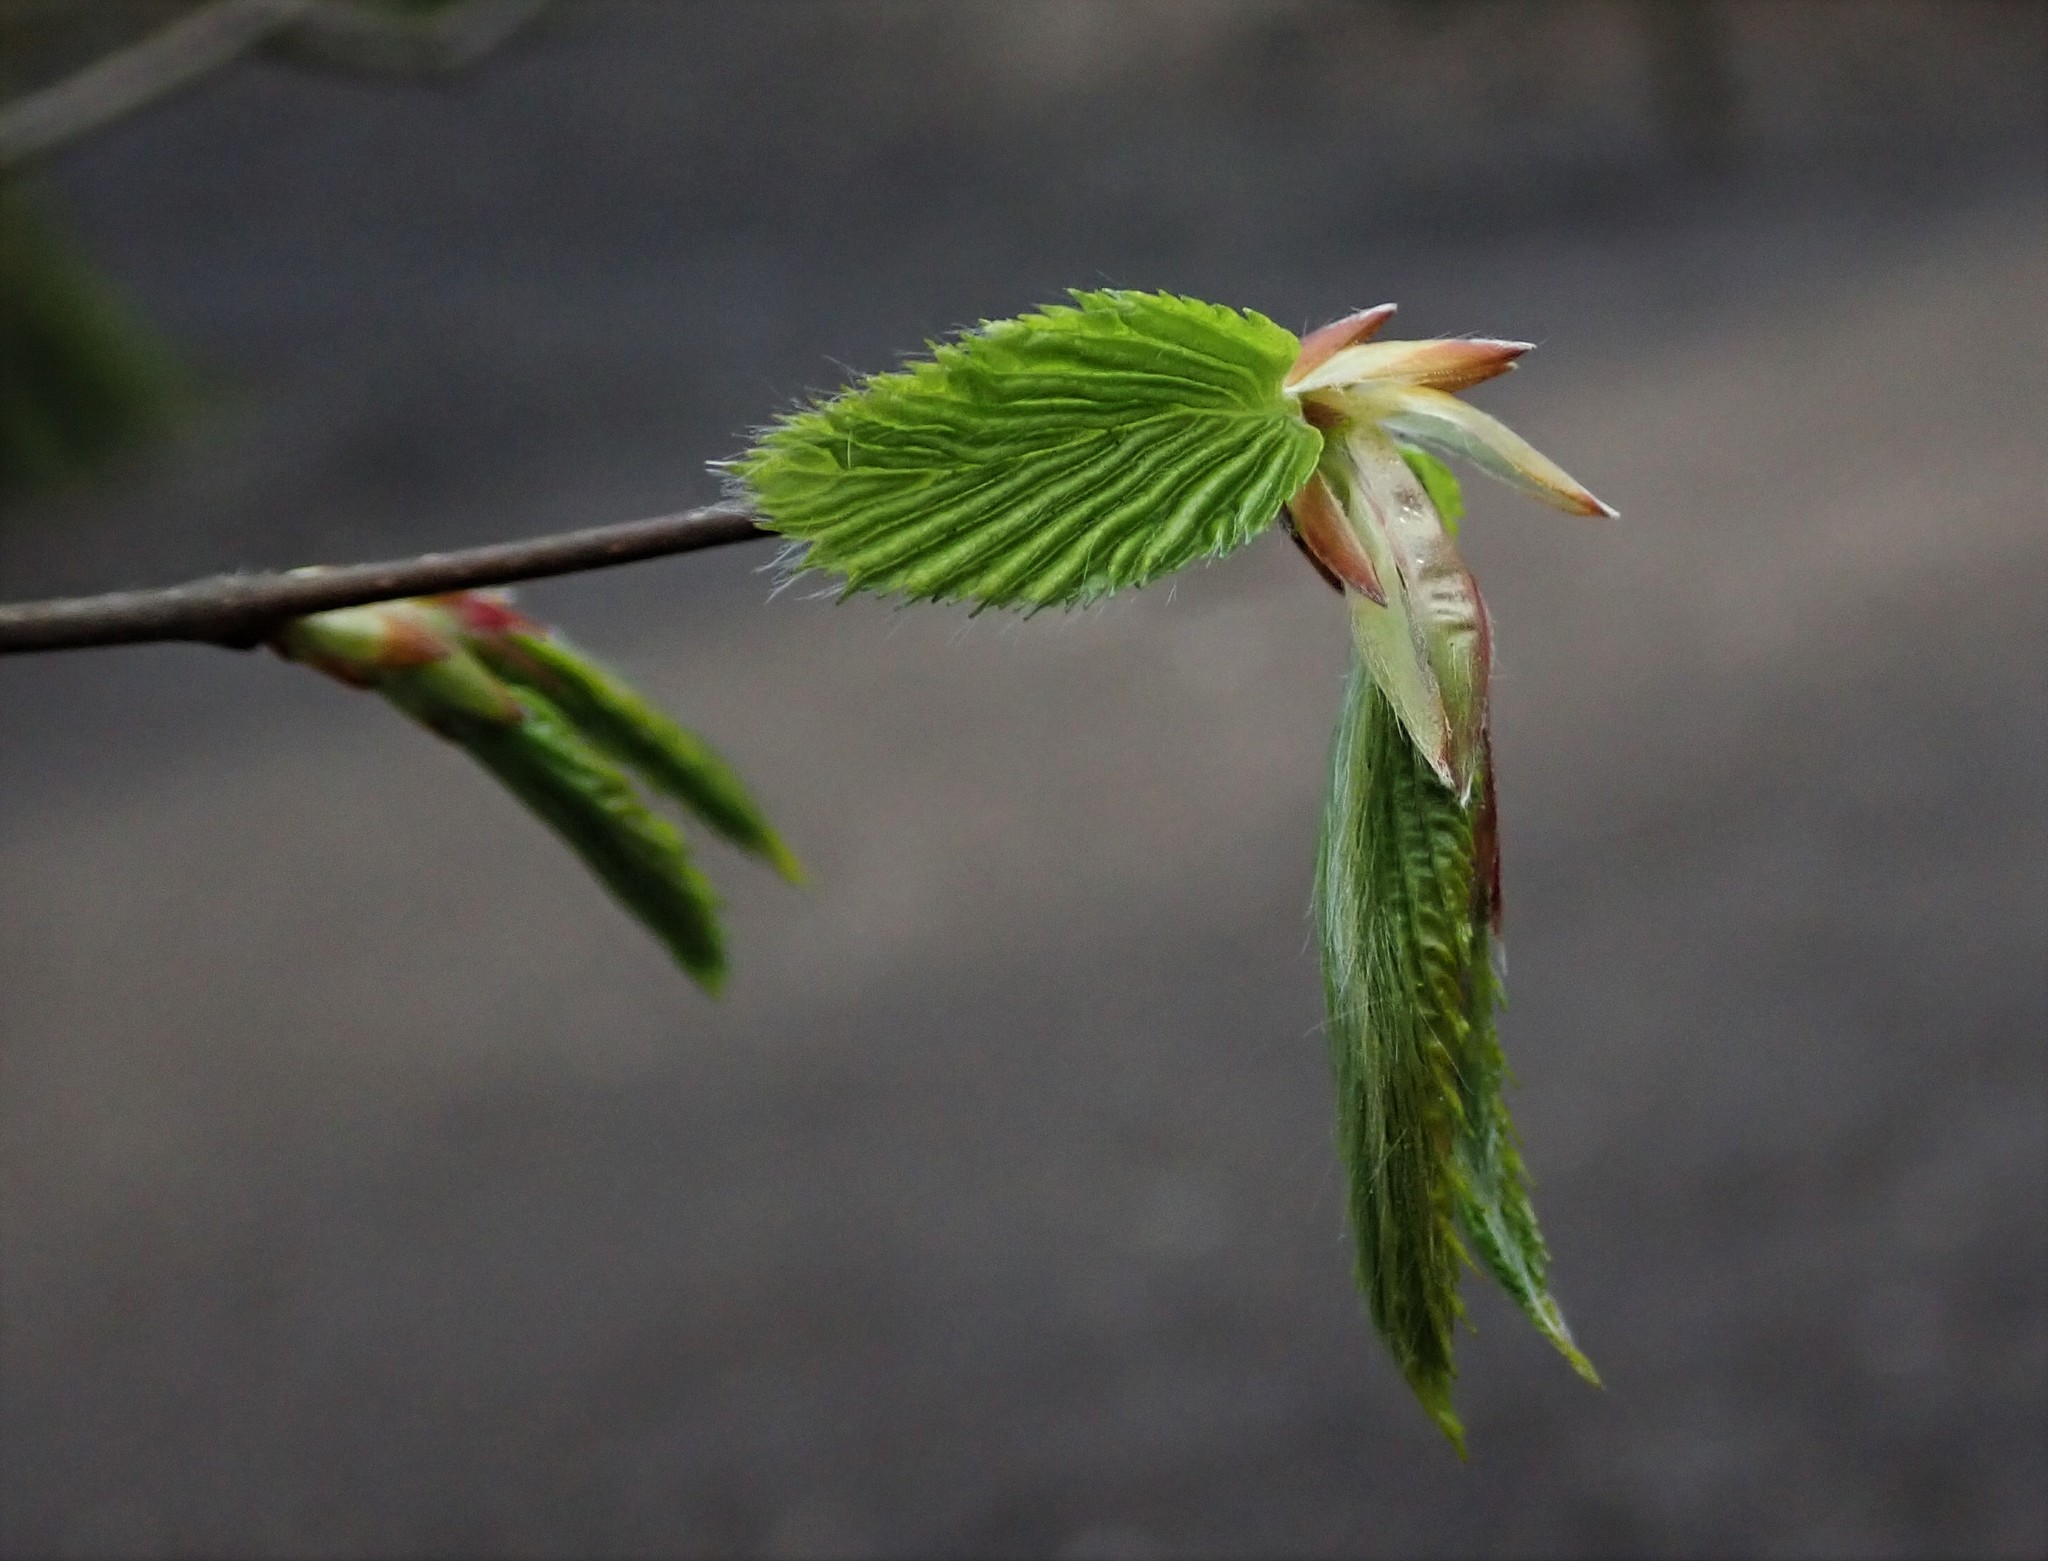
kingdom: Plantae
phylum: Tracheophyta
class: Magnoliopsida
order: Fagales
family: Betulaceae
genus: Carpinus
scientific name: Carpinus betulus
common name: Hornbeam
